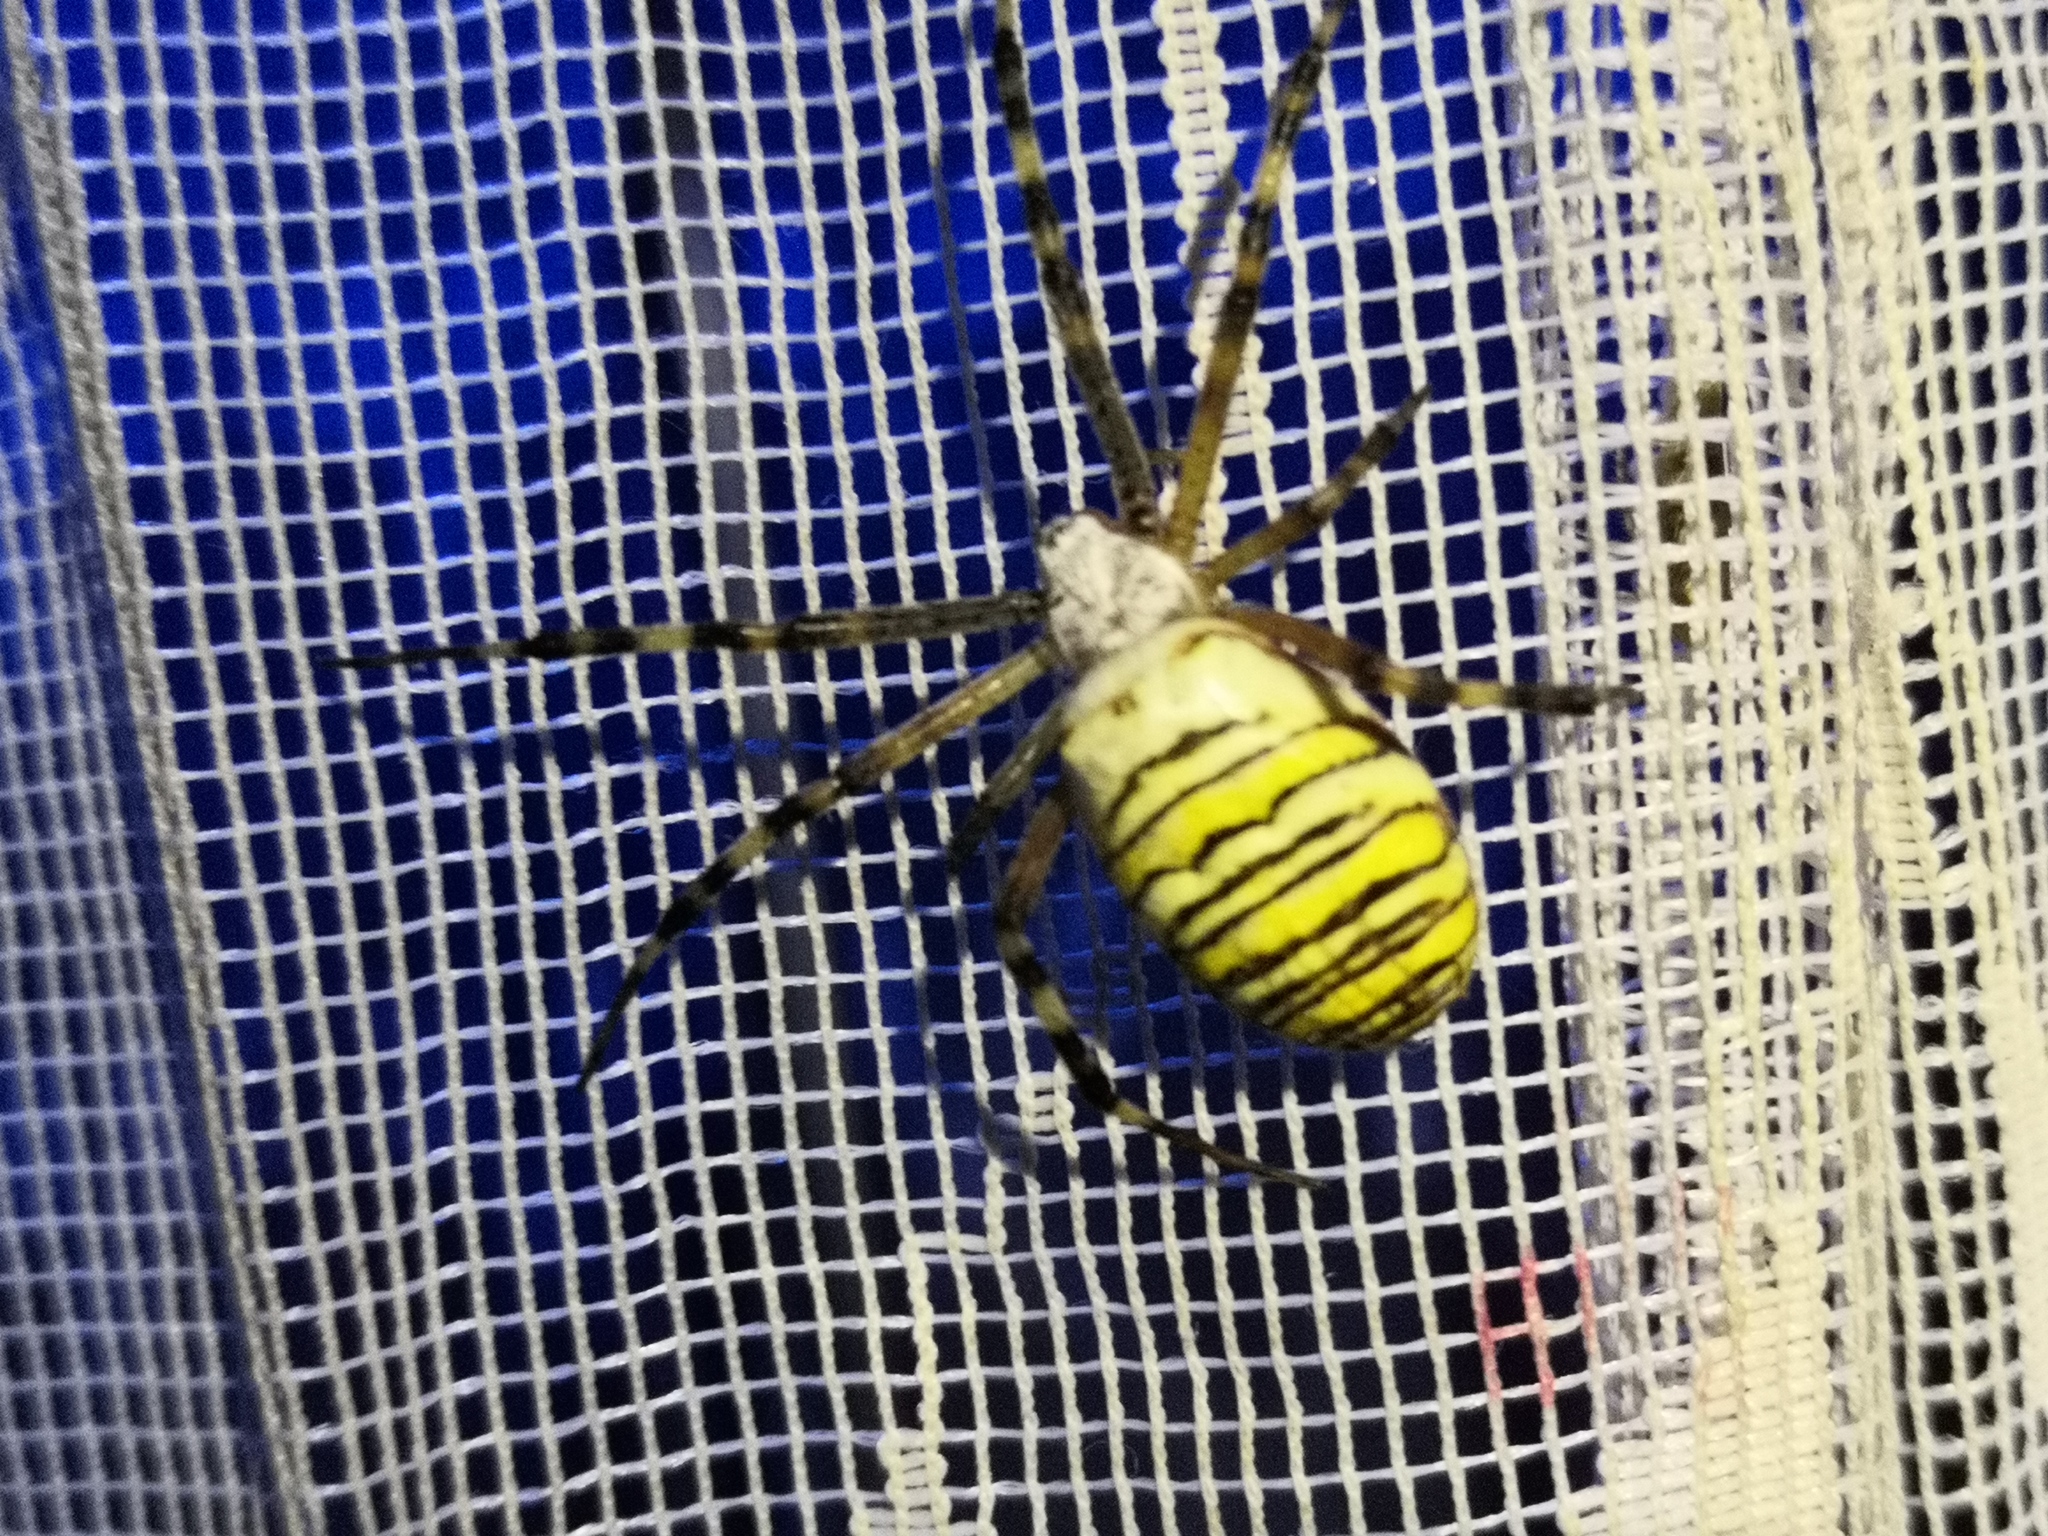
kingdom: Animalia
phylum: Arthropoda
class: Arachnida
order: Araneae
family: Araneidae
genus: Argiope
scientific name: Argiope bruennichi
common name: Wasp spider
